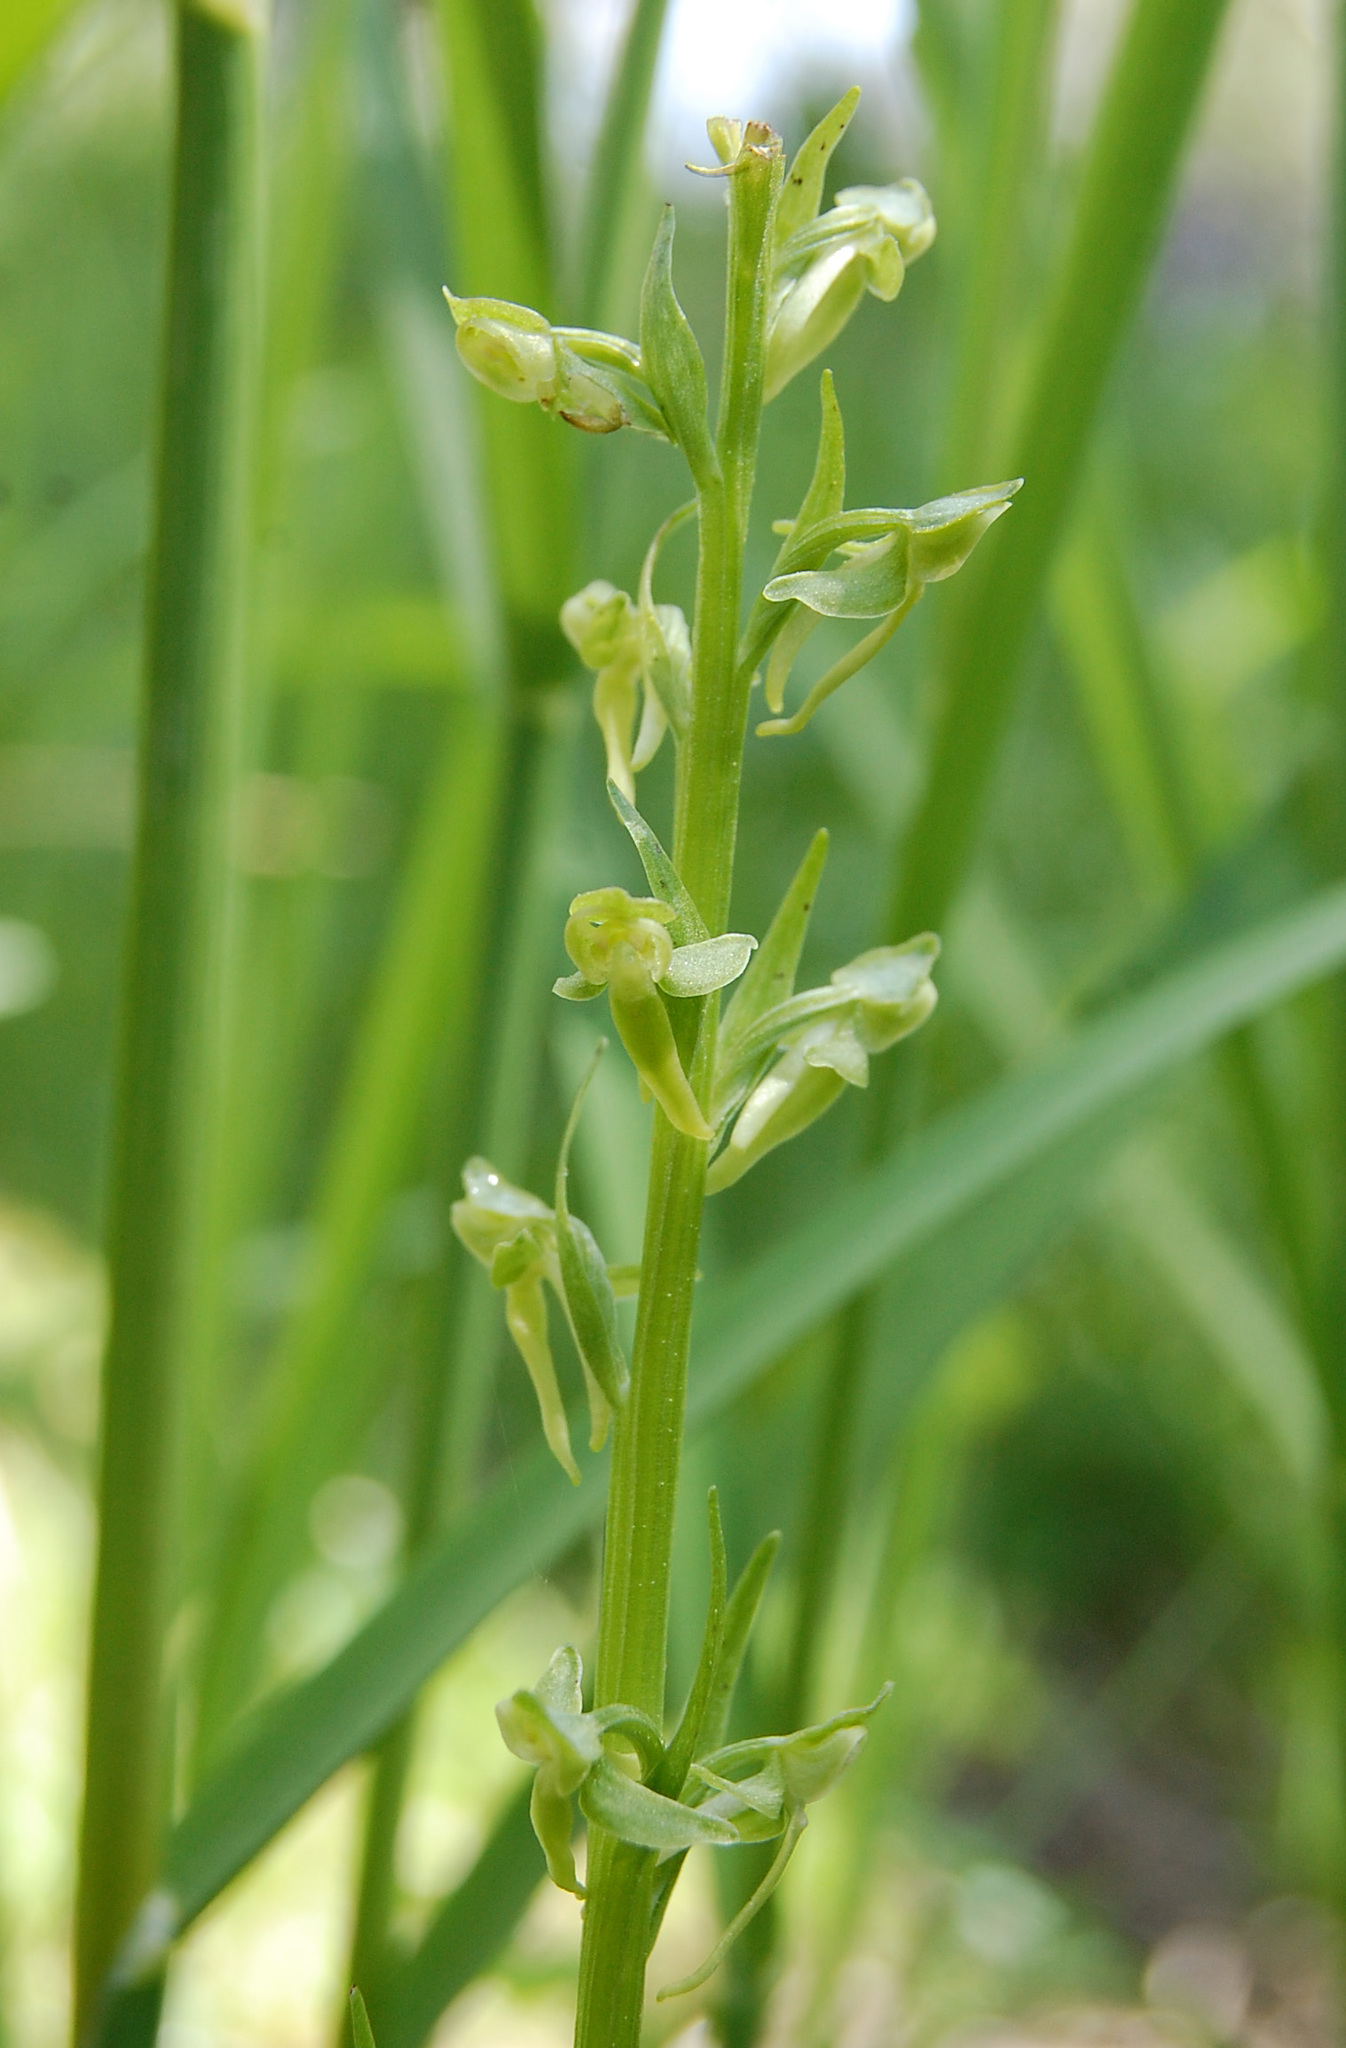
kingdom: Plantae
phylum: Tracheophyta
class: Liliopsida
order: Asparagales
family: Orchidaceae
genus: Platanthera
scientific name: Platanthera sparsiflora
